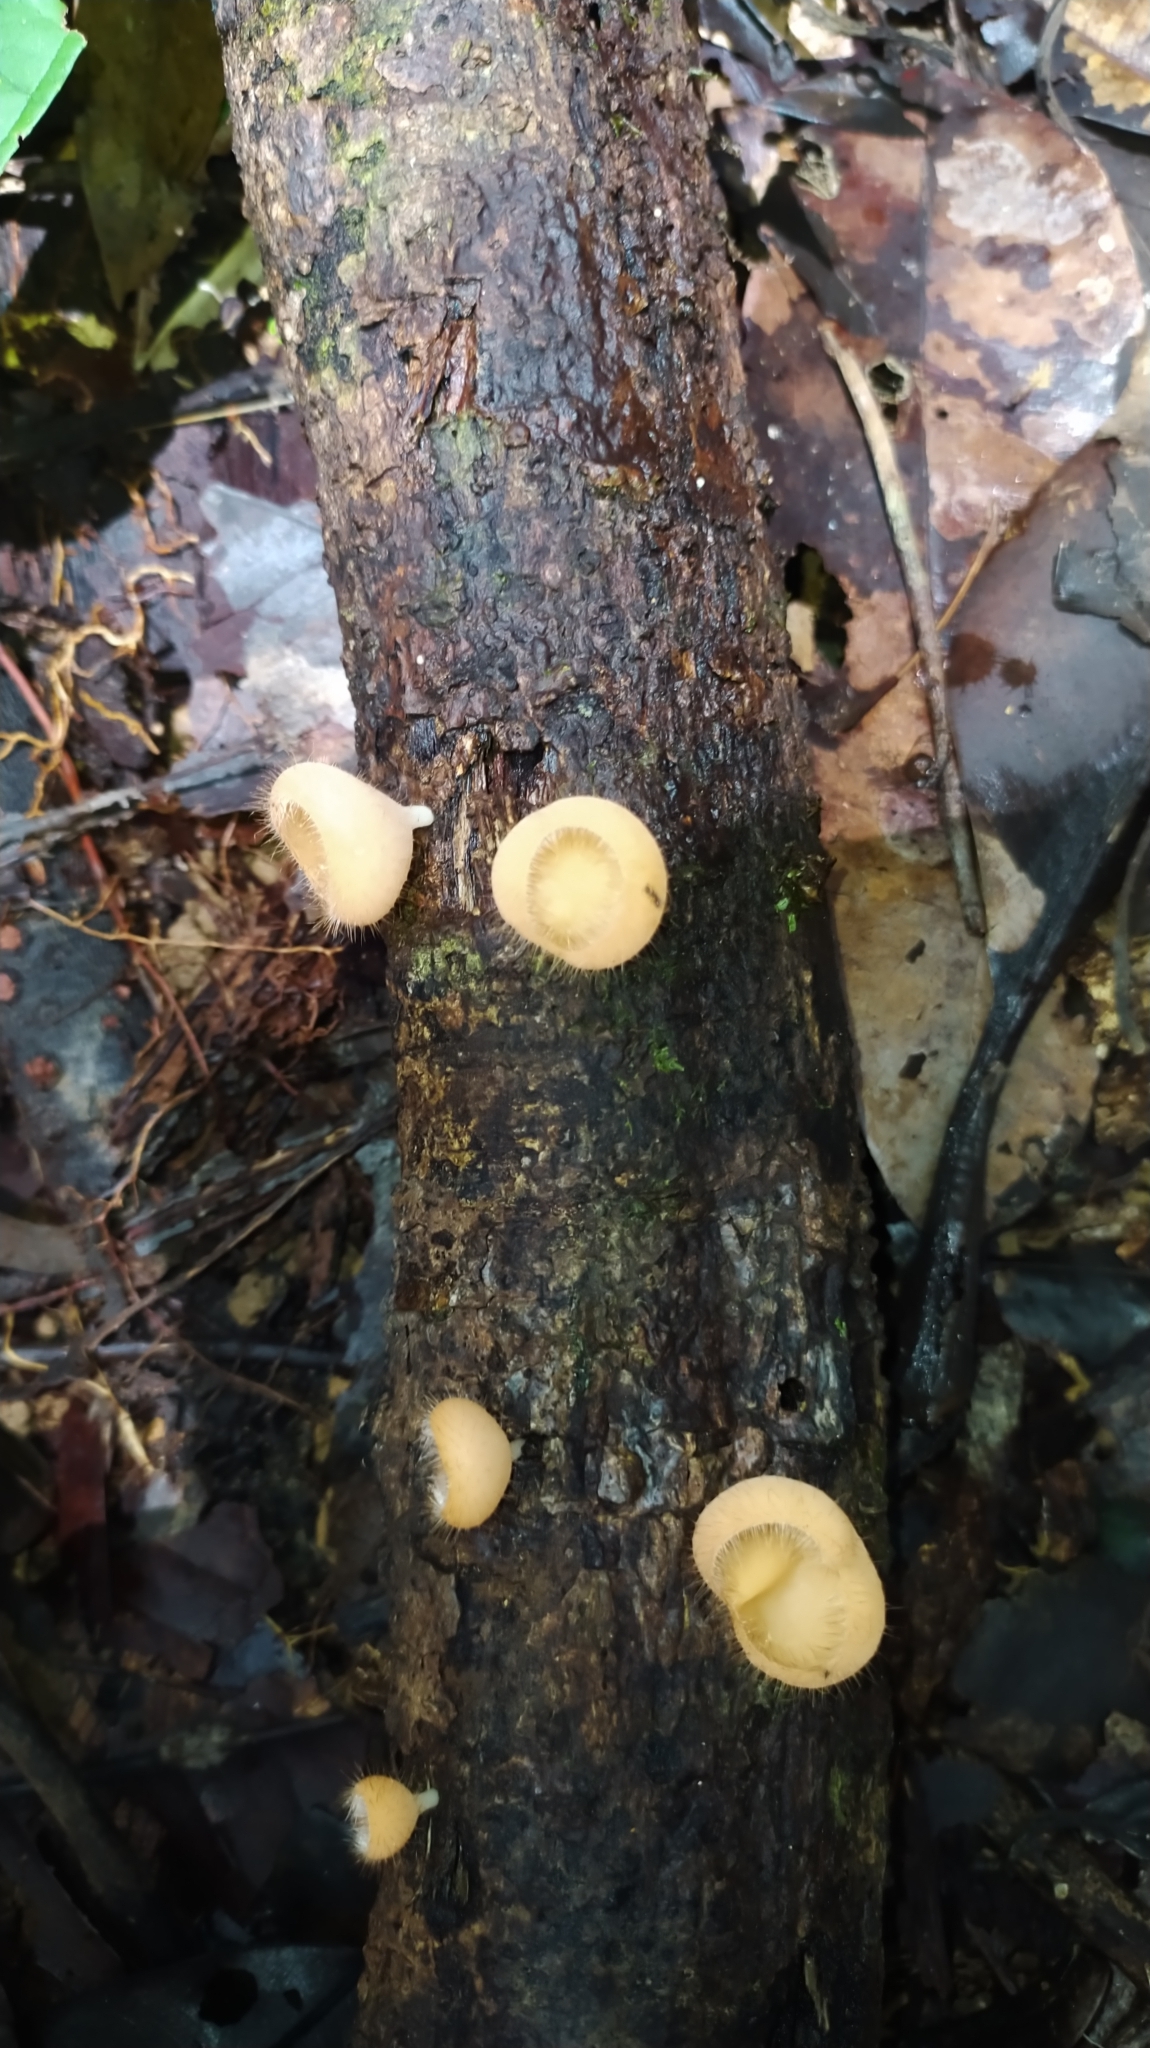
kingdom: Fungi
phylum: Ascomycota
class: Pezizomycetes
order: Pezizales
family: Sarcoscyphaceae
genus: Cookeina
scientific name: Cookeina tricholoma
